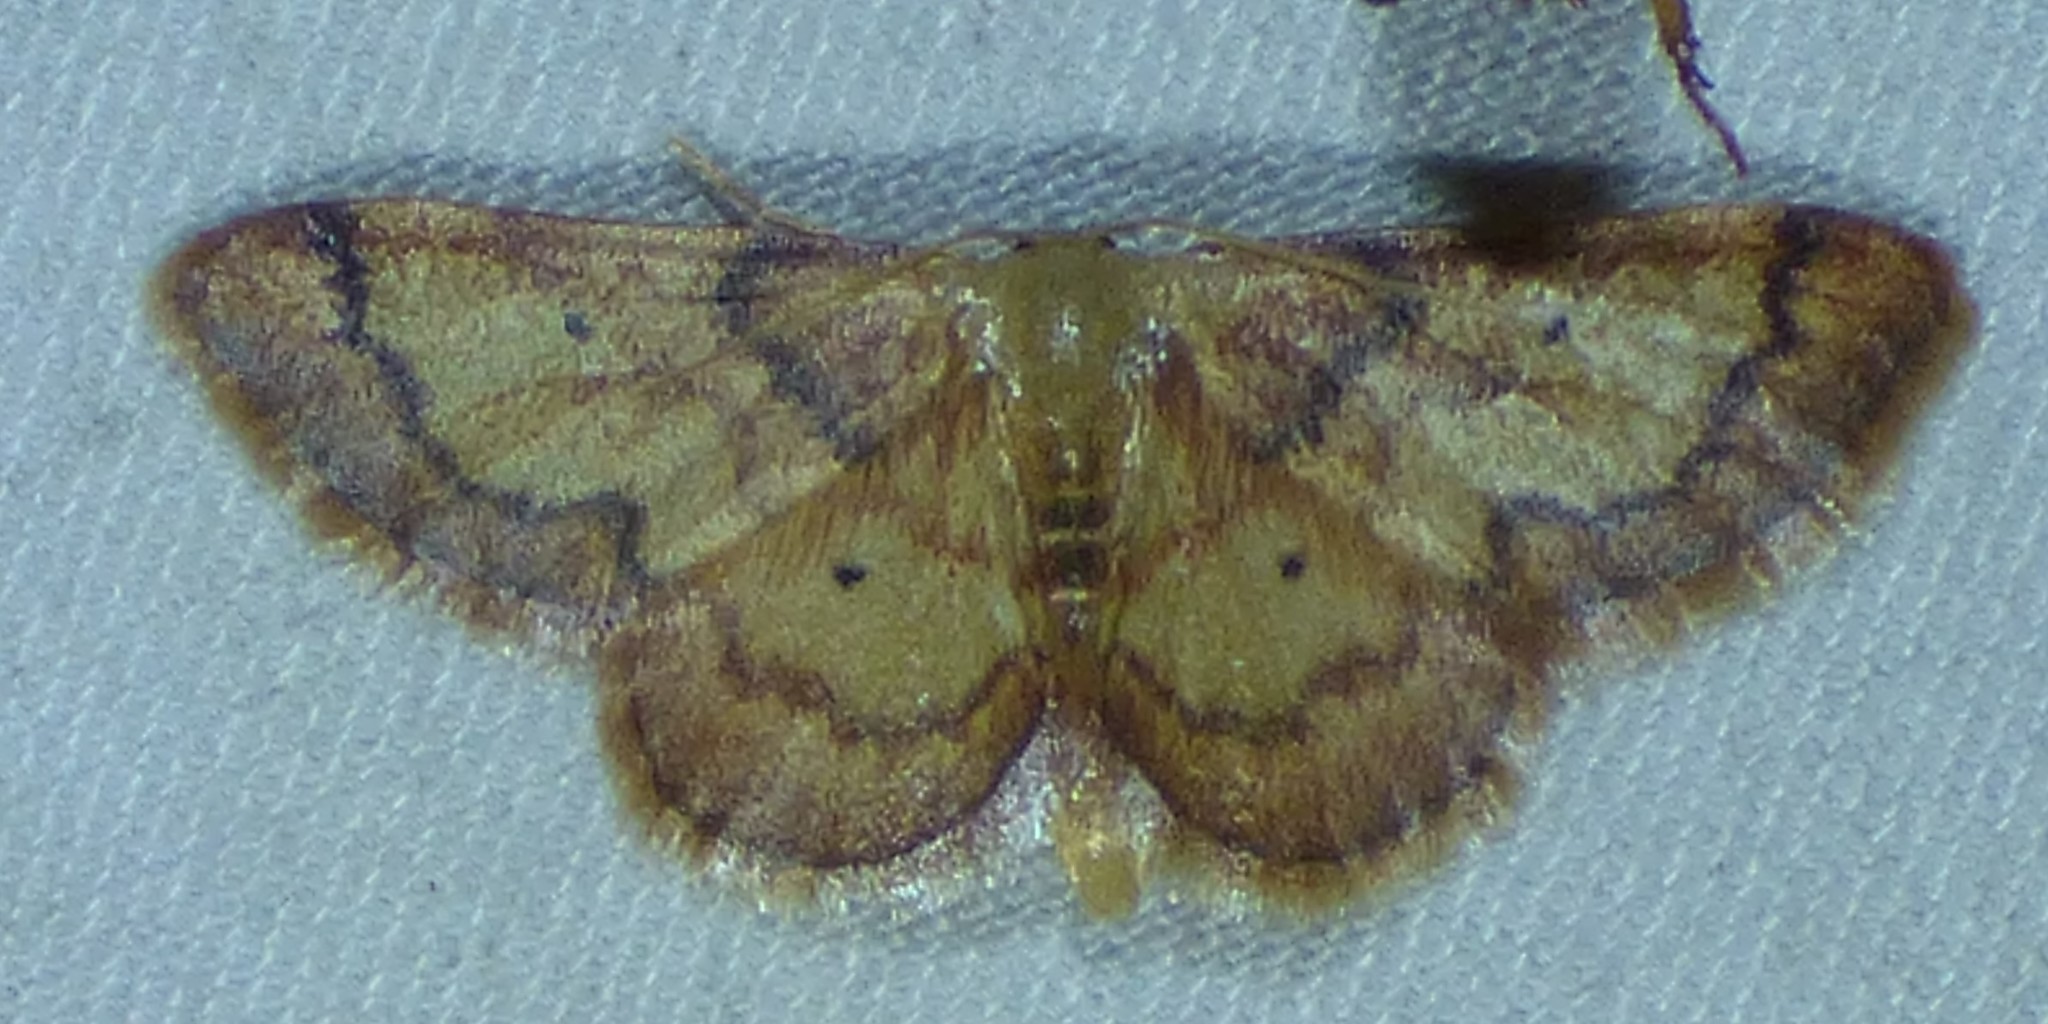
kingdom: Animalia
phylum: Arthropoda
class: Insecta
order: Lepidoptera
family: Geometridae
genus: Idaea
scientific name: Idaea demissaria
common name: Red-bordered wave
